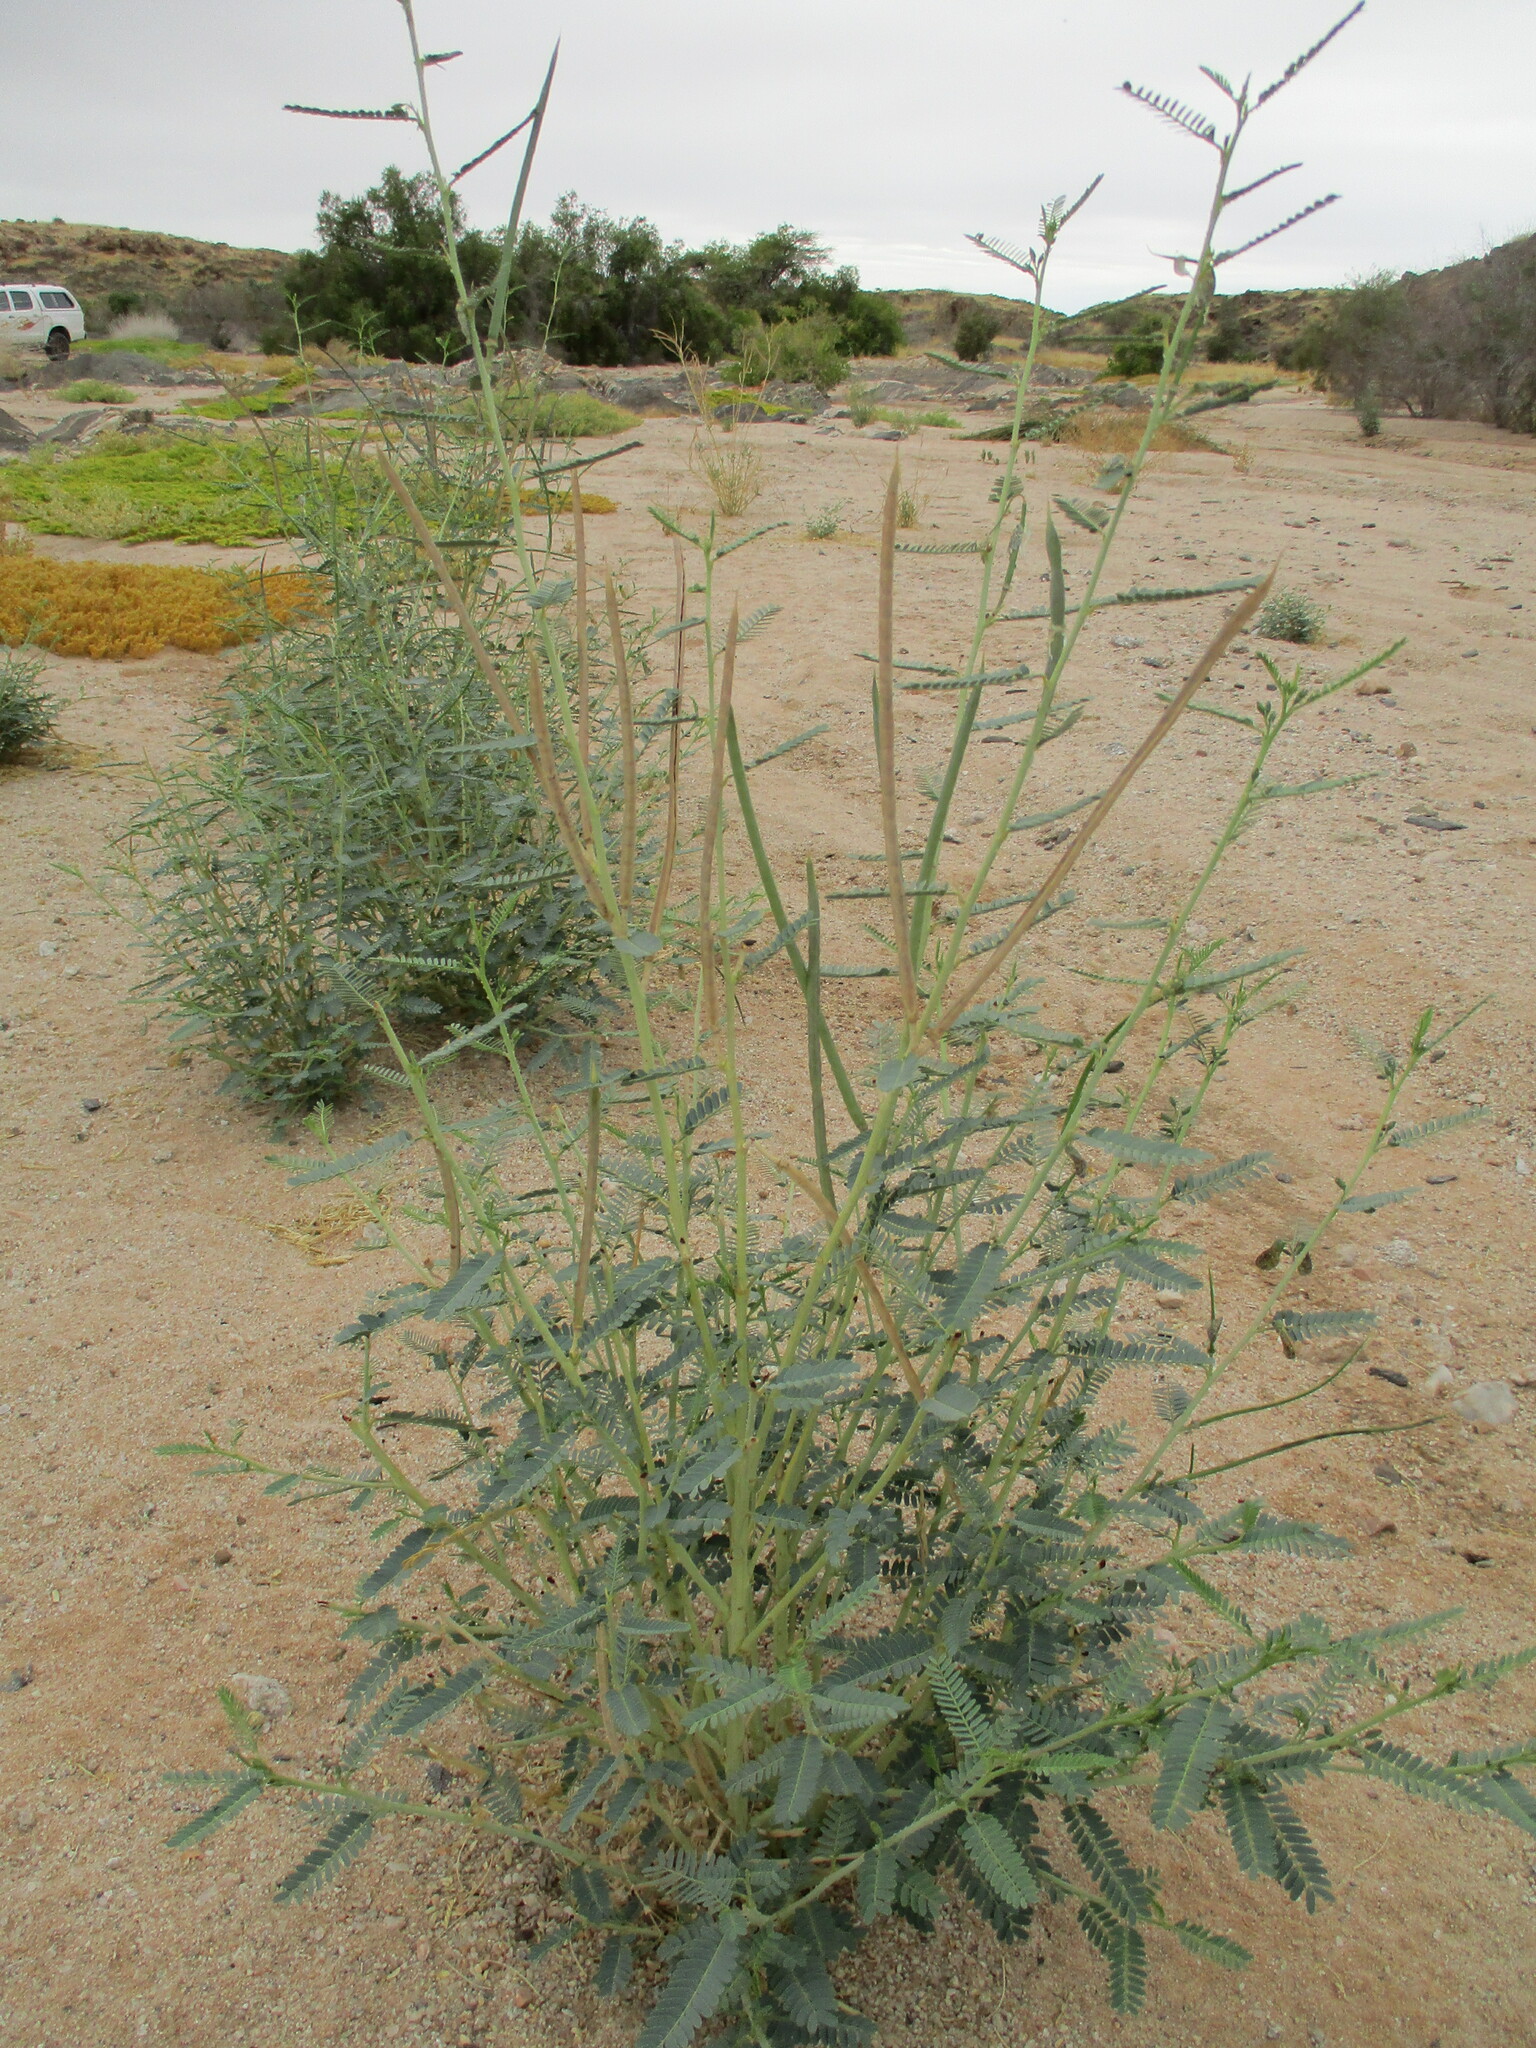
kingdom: Plantae
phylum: Tracheophyta
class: Magnoliopsida
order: Fabales
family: Fabaceae
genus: Sesbania
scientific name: Sesbania pachycarpa
